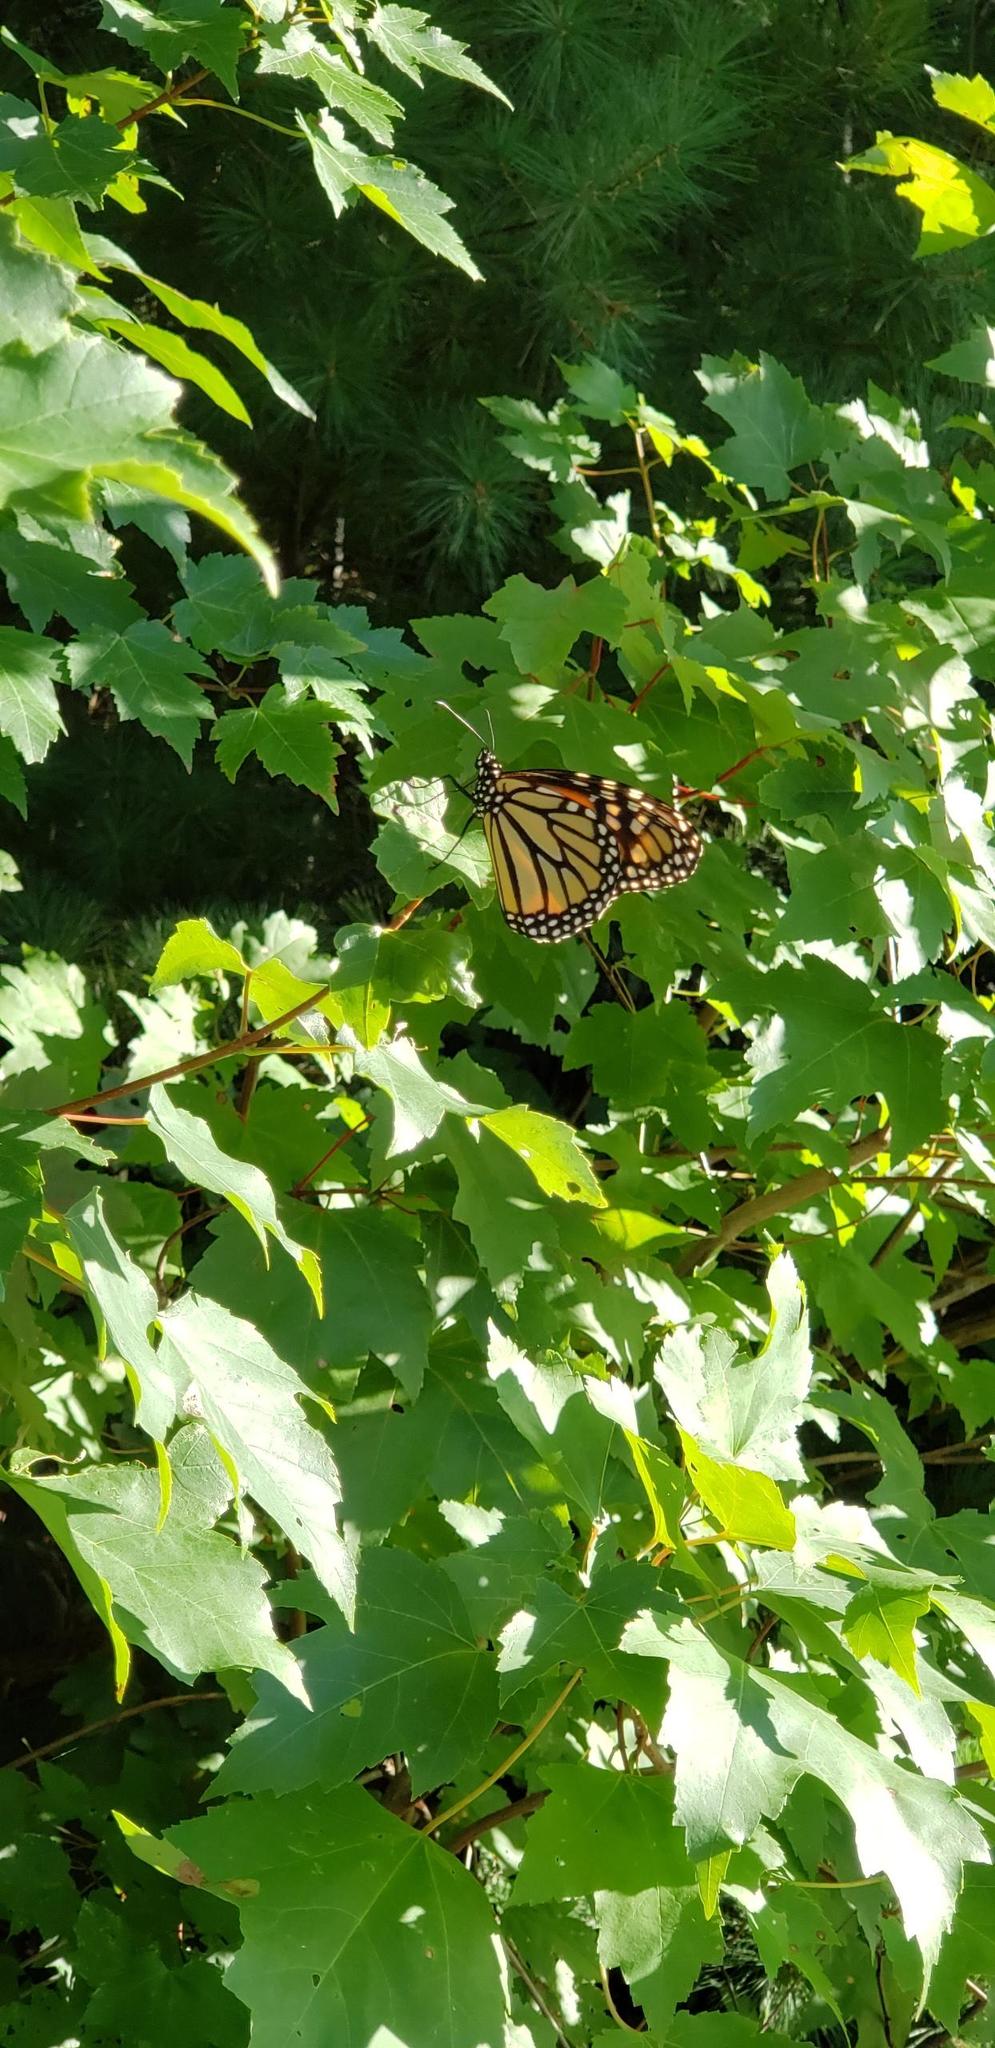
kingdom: Animalia
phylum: Arthropoda
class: Insecta
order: Lepidoptera
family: Nymphalidae
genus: Danaus
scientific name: Danaus plexippus
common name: Monarch
